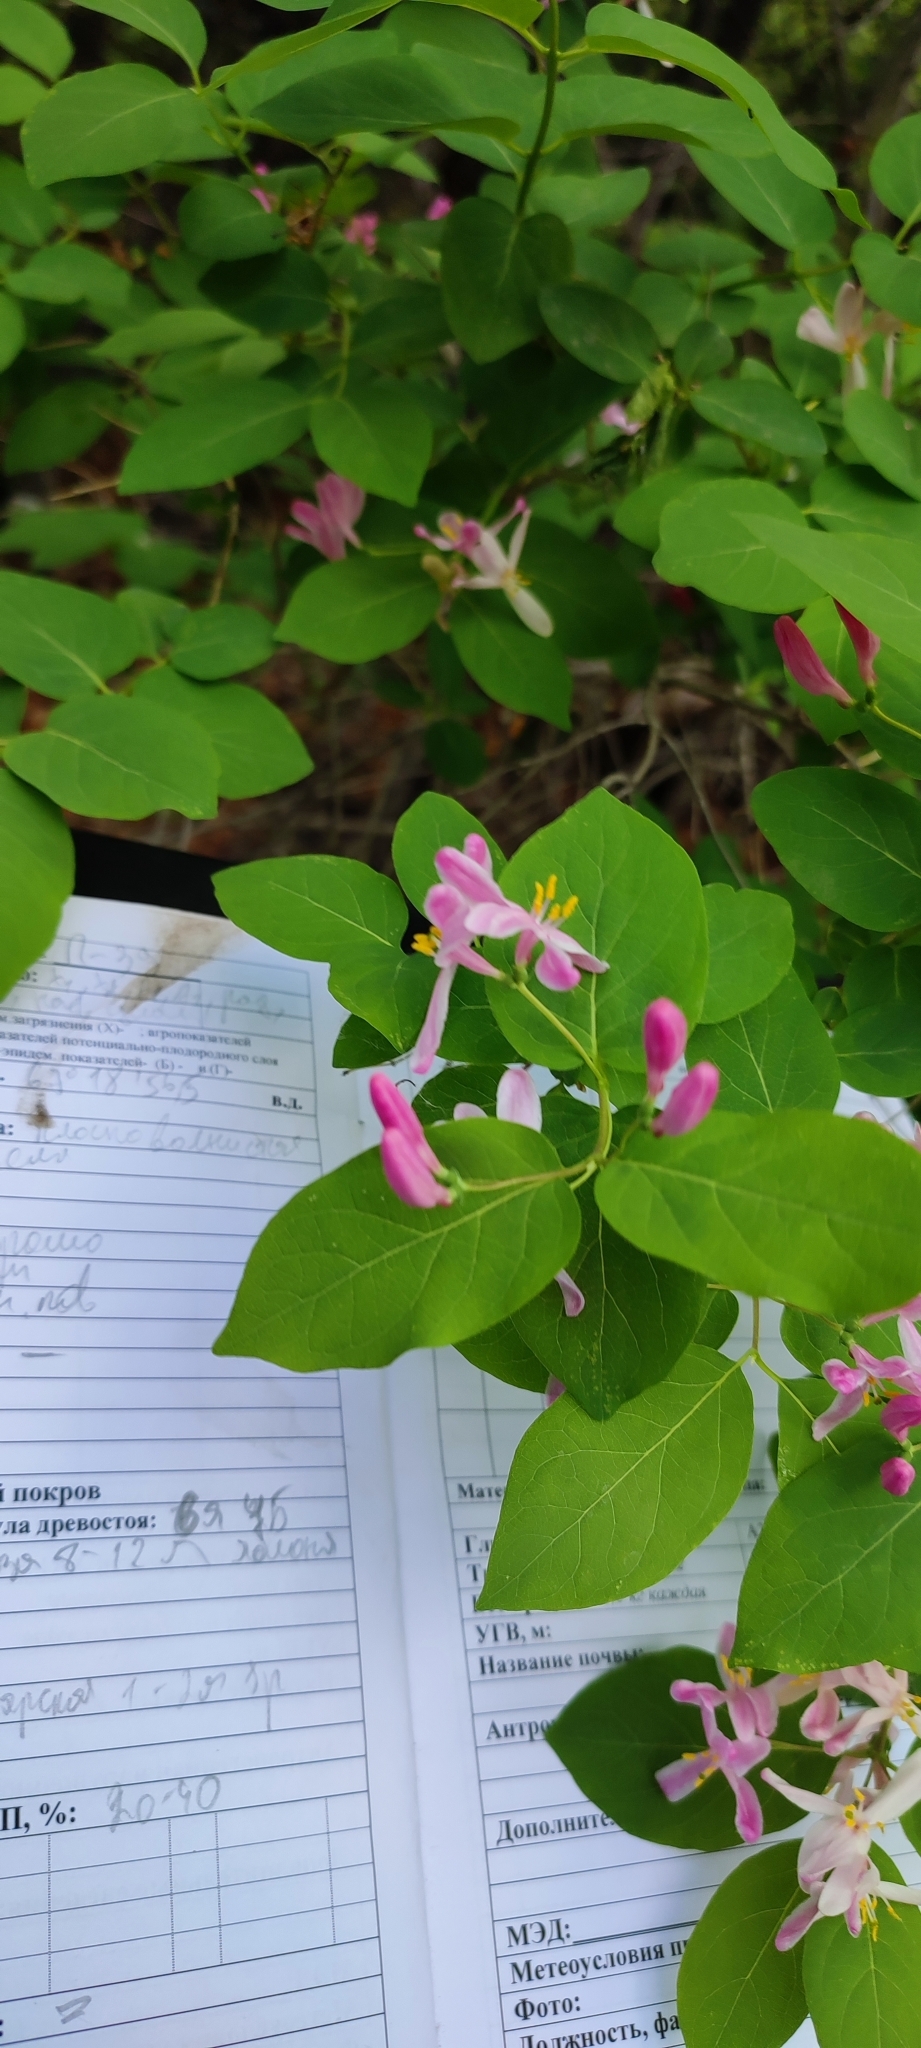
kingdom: Plantae
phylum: Tracheophyta
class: Magnoliopsida
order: Dipsacales
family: Caprifoliaceae
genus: Lonicera
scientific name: Lonicera tatarica
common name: Tatarian honeysuckle
